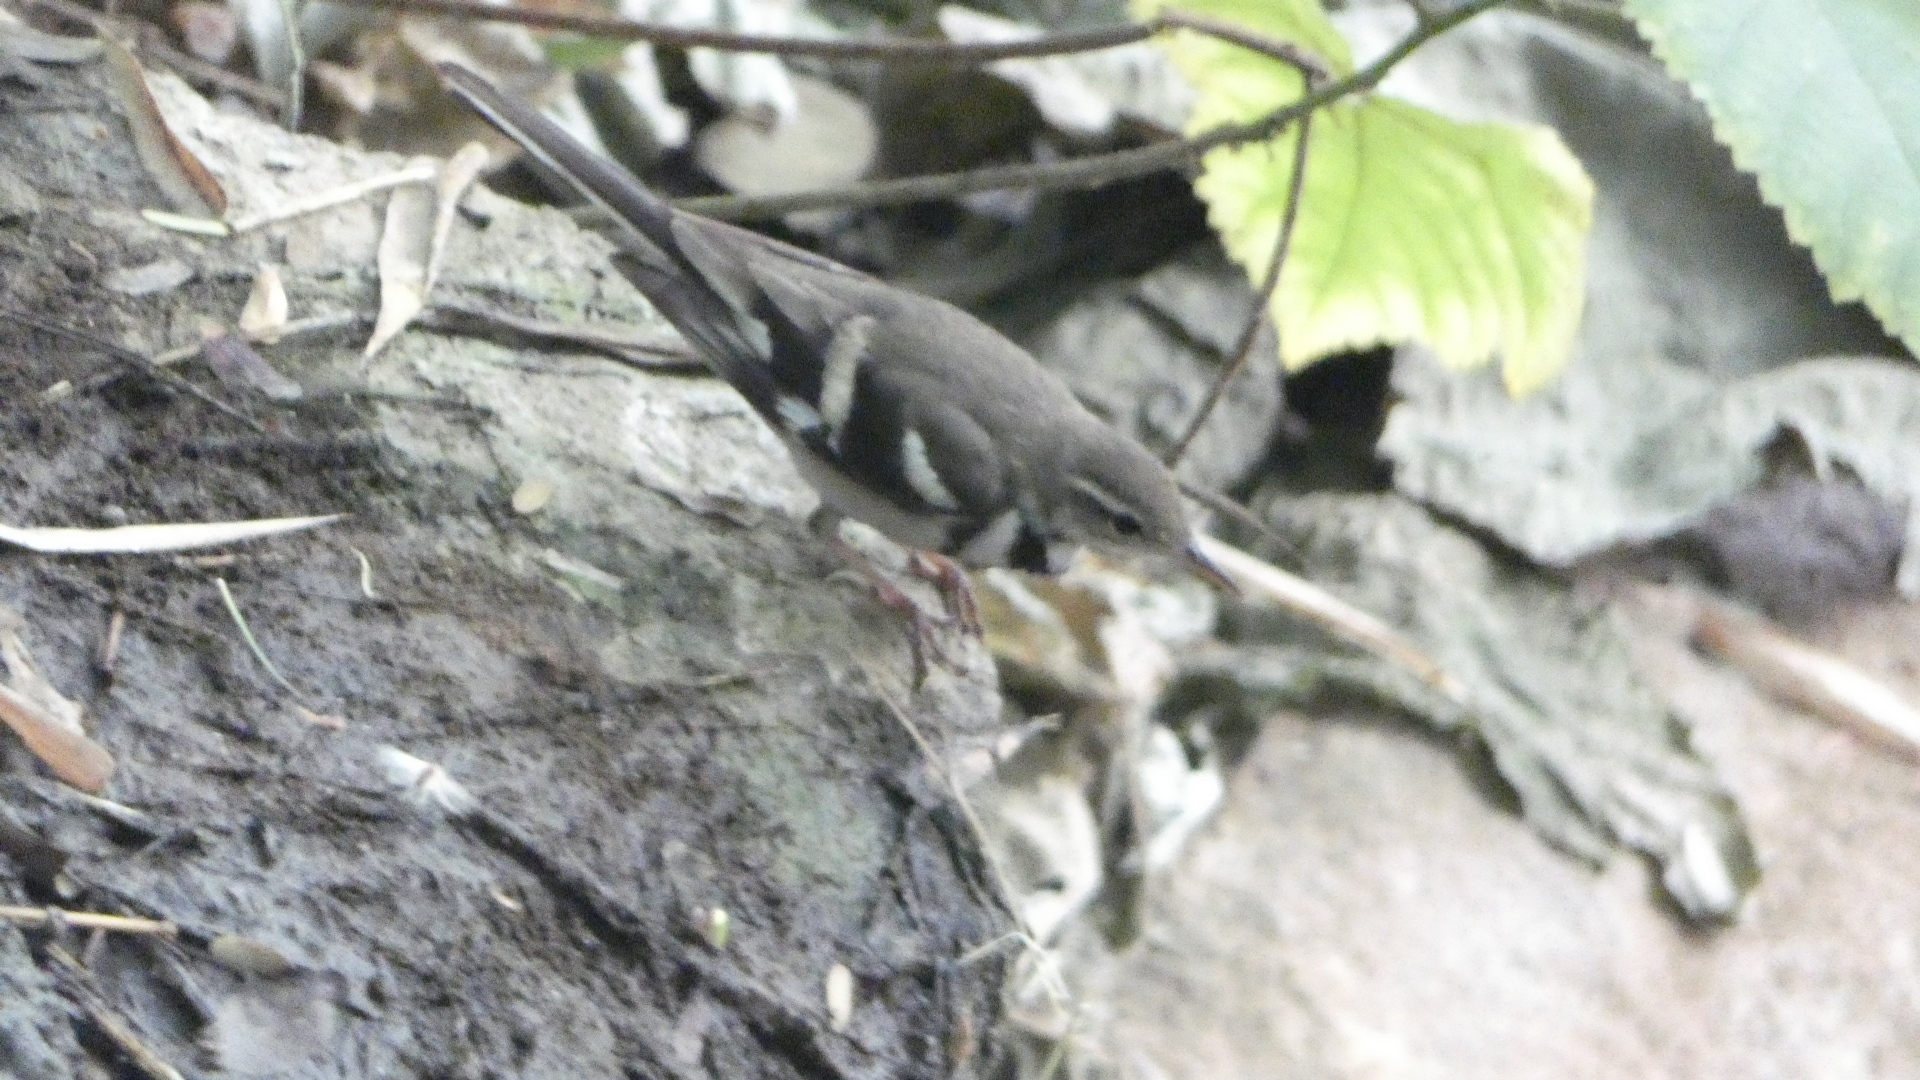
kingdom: Animalia
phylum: Chordata
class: Aves
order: Passeriformes
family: Motacillidae
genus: Dendronanthus
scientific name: Dendronanthus indicus
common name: Forest wagtail
